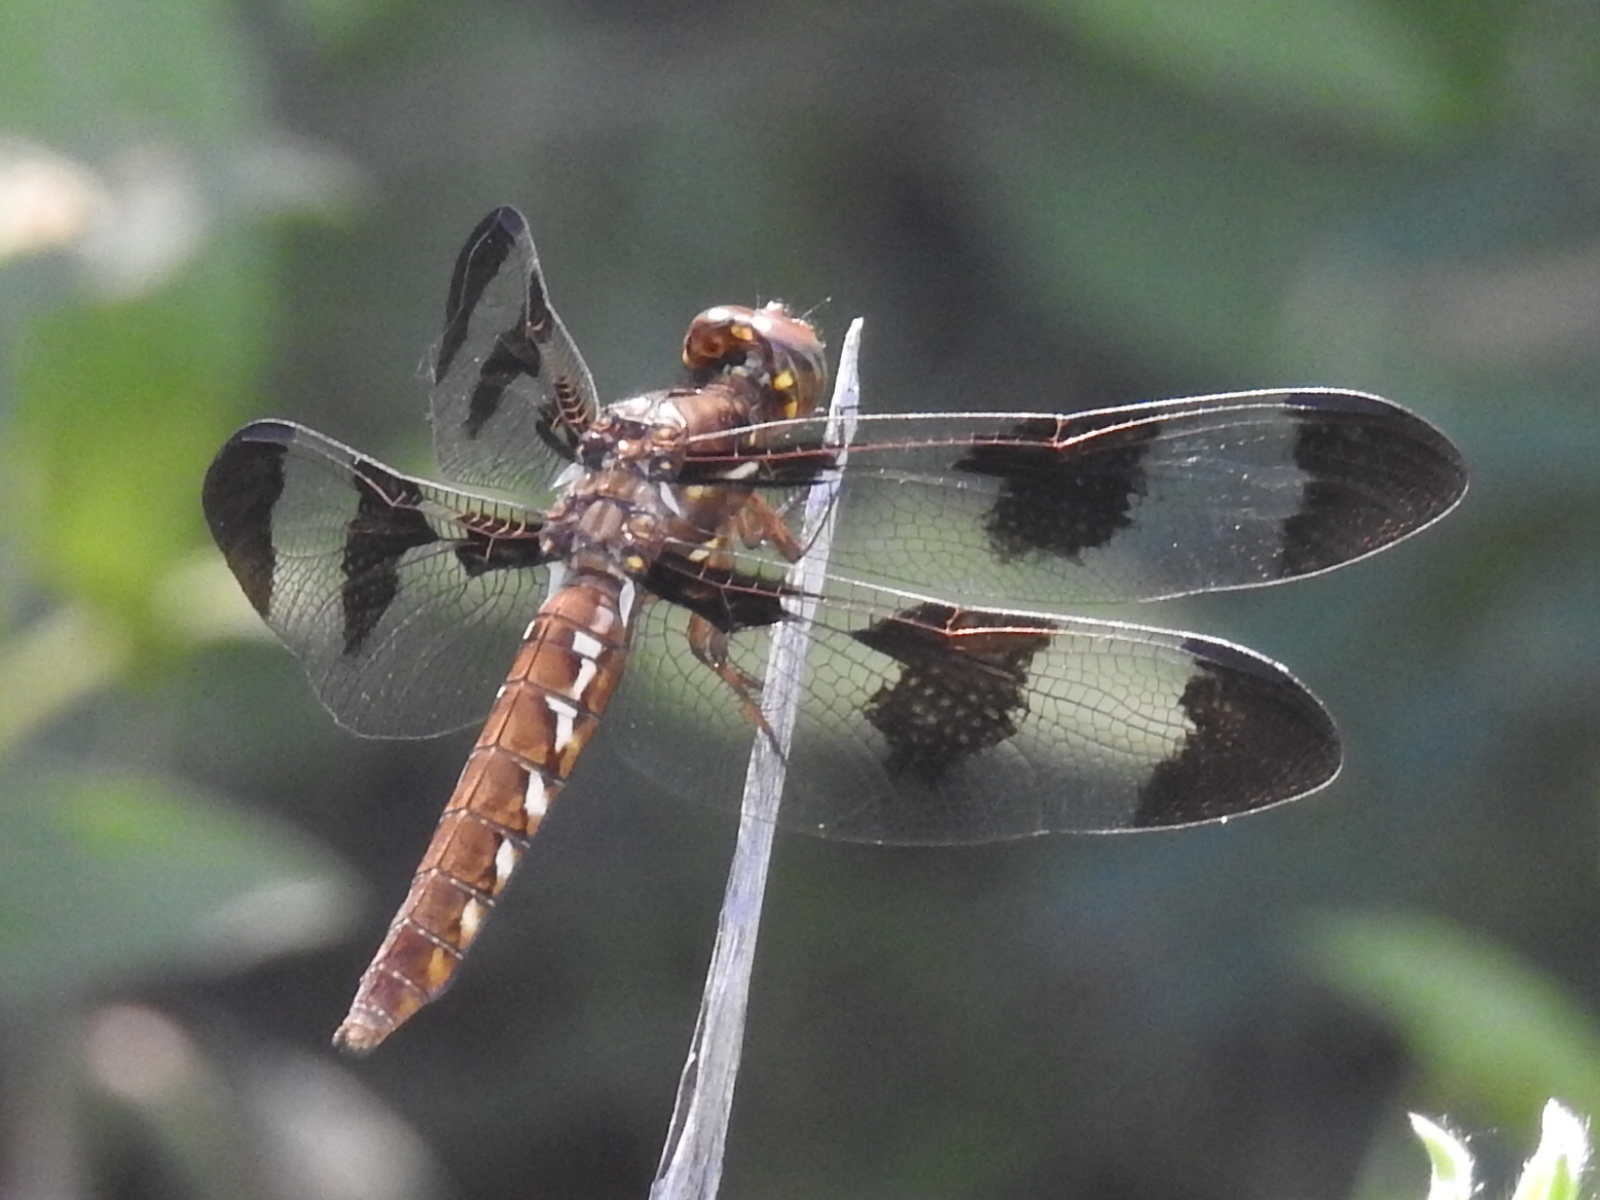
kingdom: Animalia
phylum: Arthropoda
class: Insecta
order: Odonata
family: Libellulidae
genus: Plathemis
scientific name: Plathemis lydia
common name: Common whitetail
